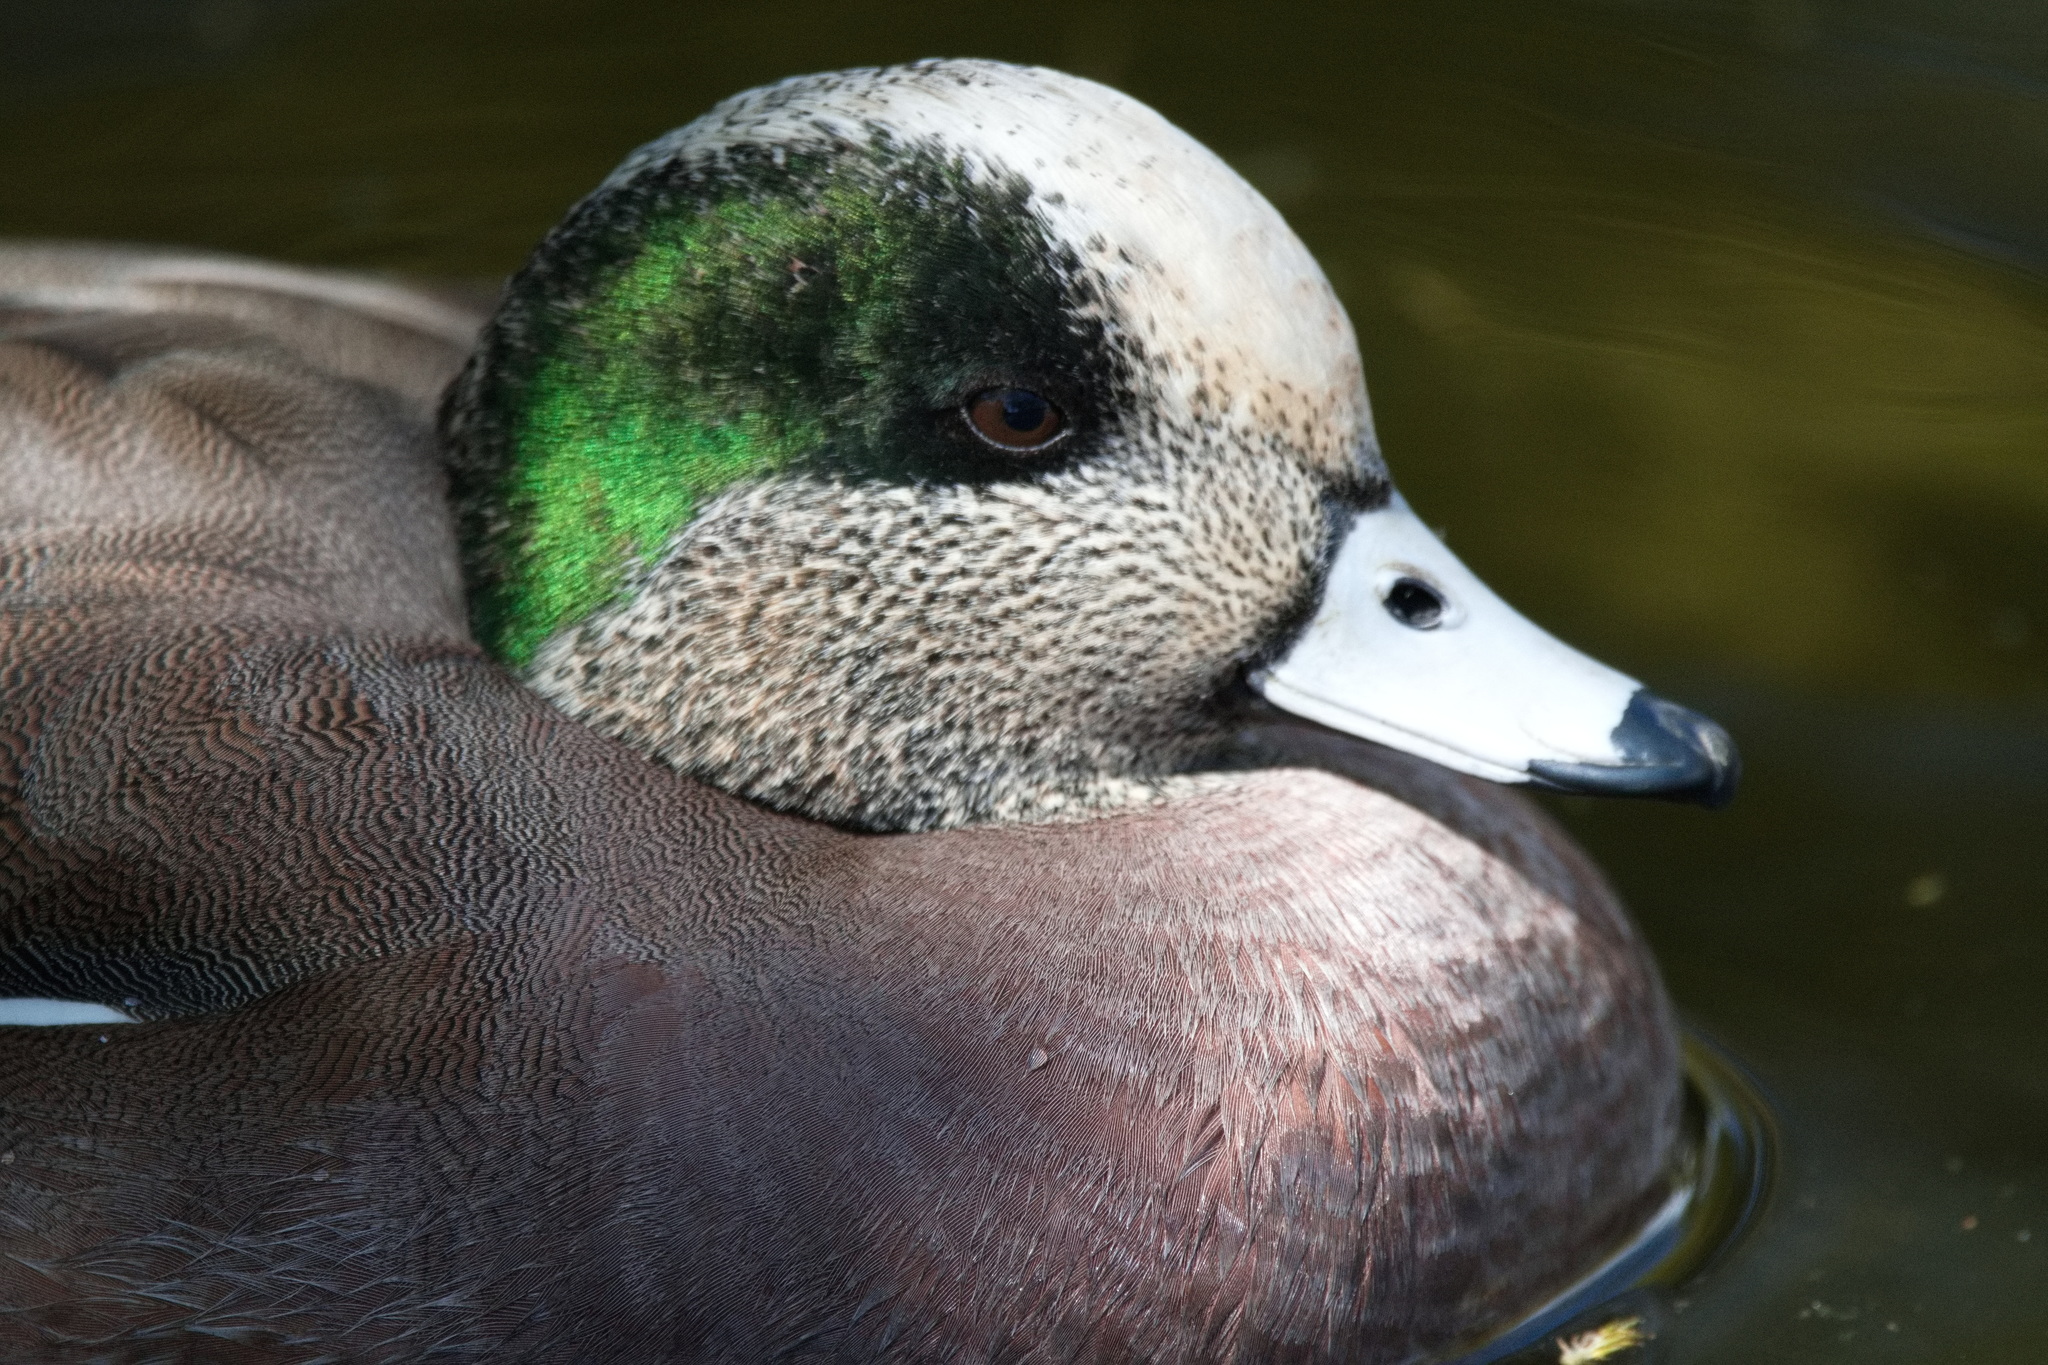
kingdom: Animalia
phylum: Chordata
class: Aves
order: Anseriformes
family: Anatidae
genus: Mareca
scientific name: Mareca americana
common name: American wigeon
